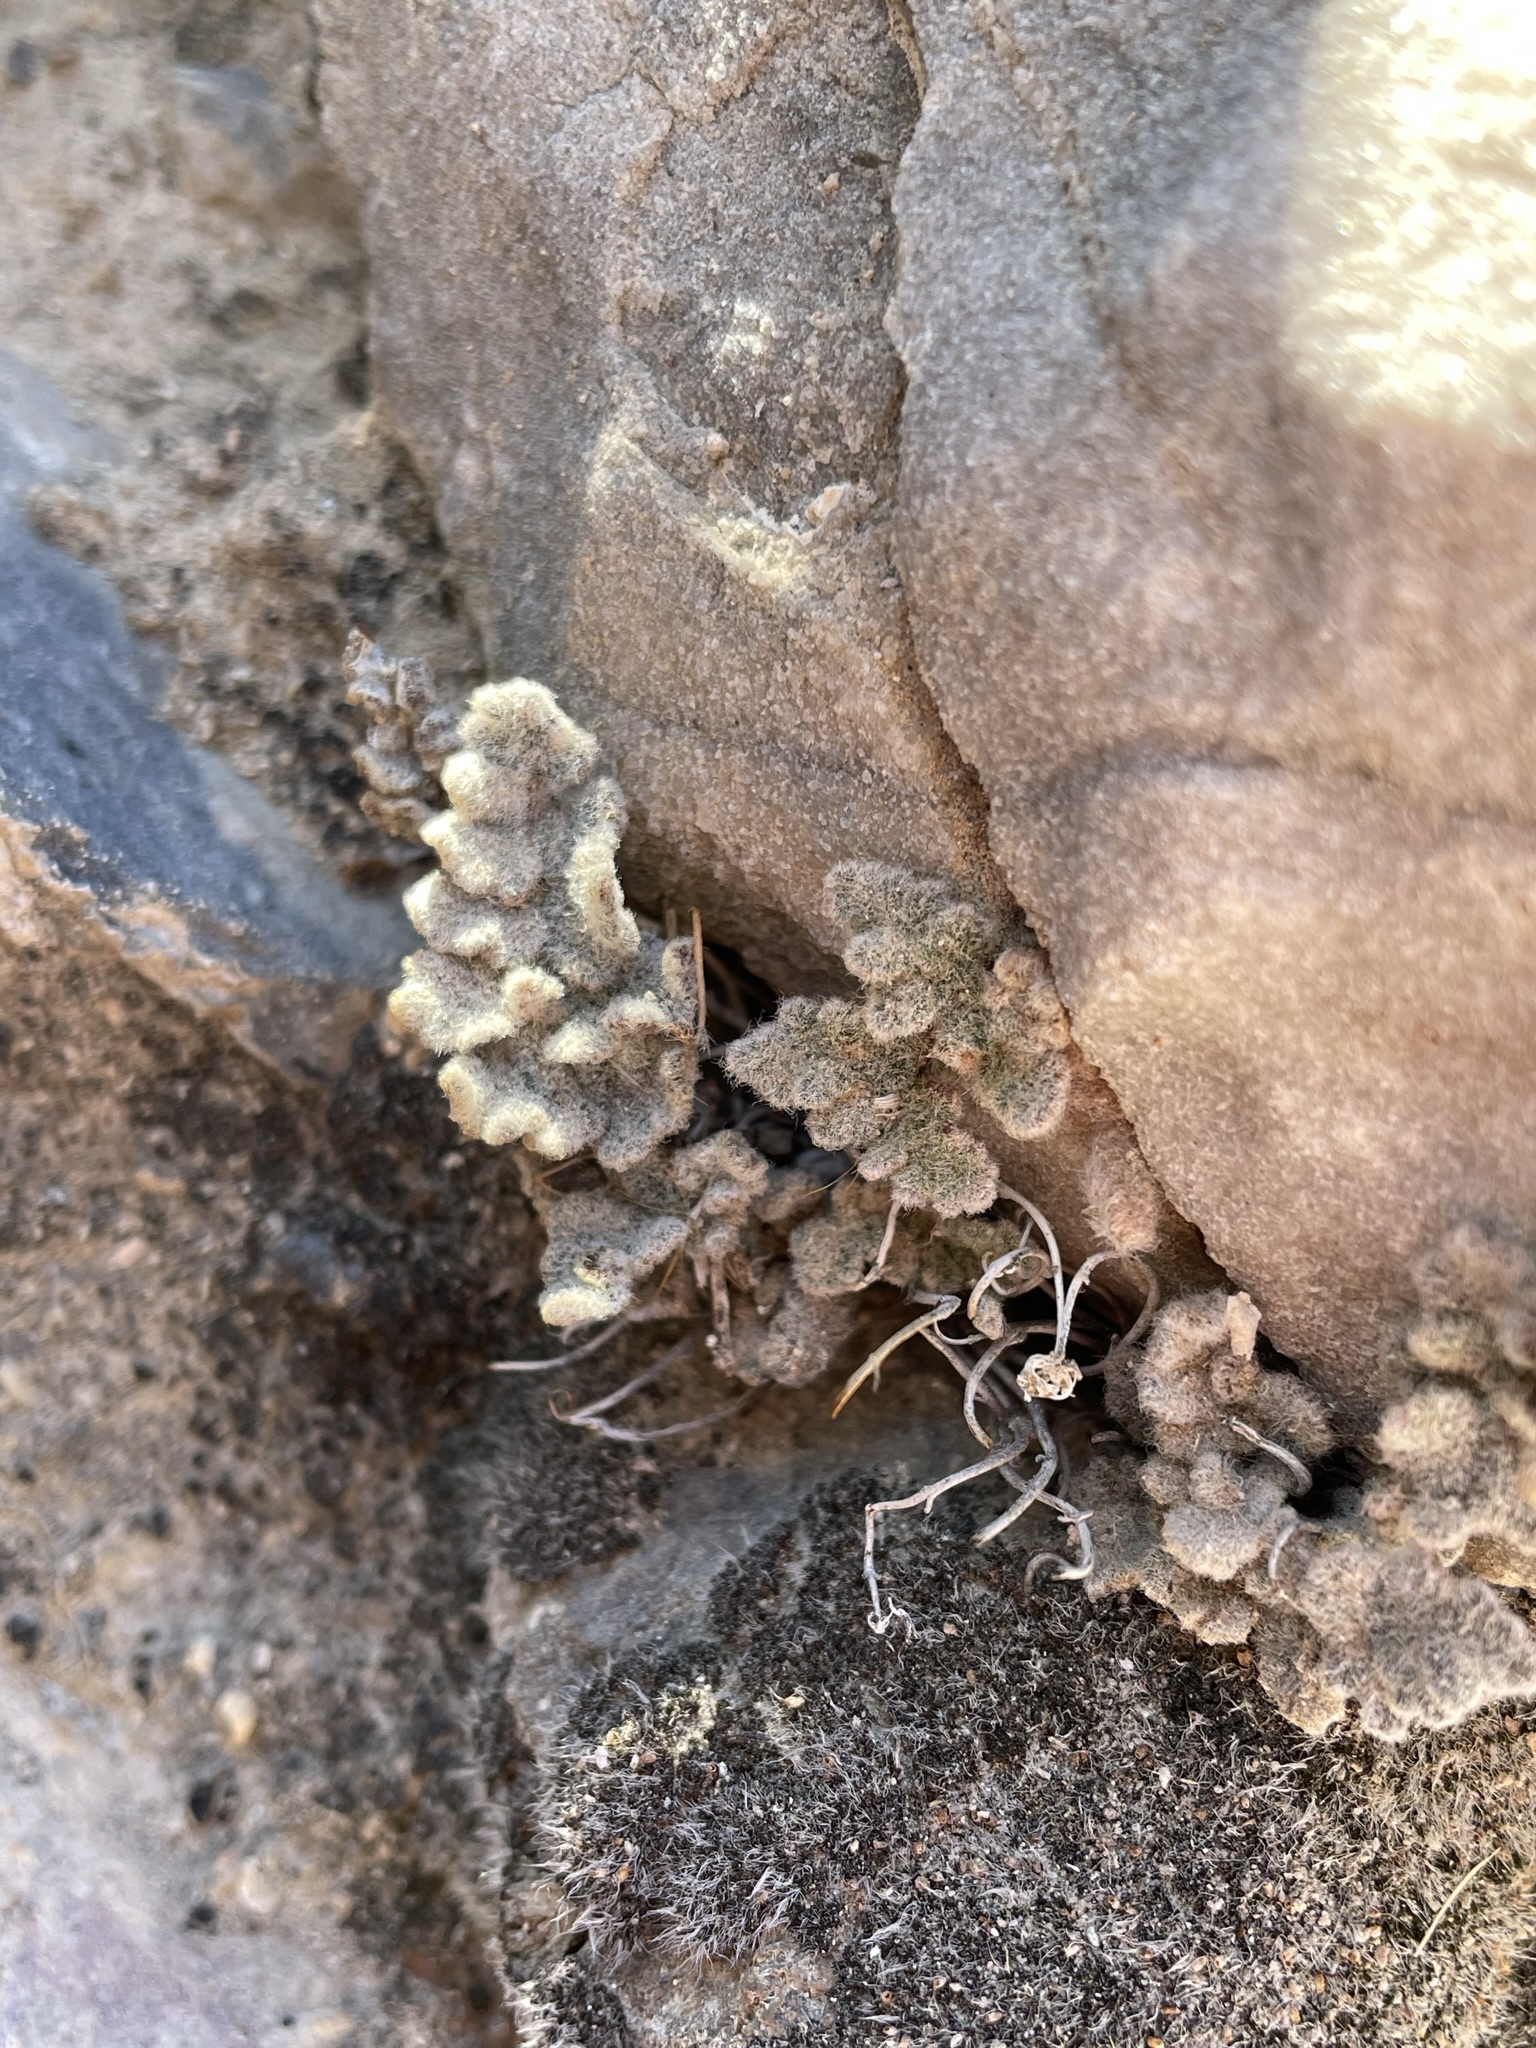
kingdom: Plantae
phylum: Tracheophyta
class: Polypodiopsida
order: Polypodiales
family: Pteridaceae
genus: Myriopteris
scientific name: Myriopteris parryi
